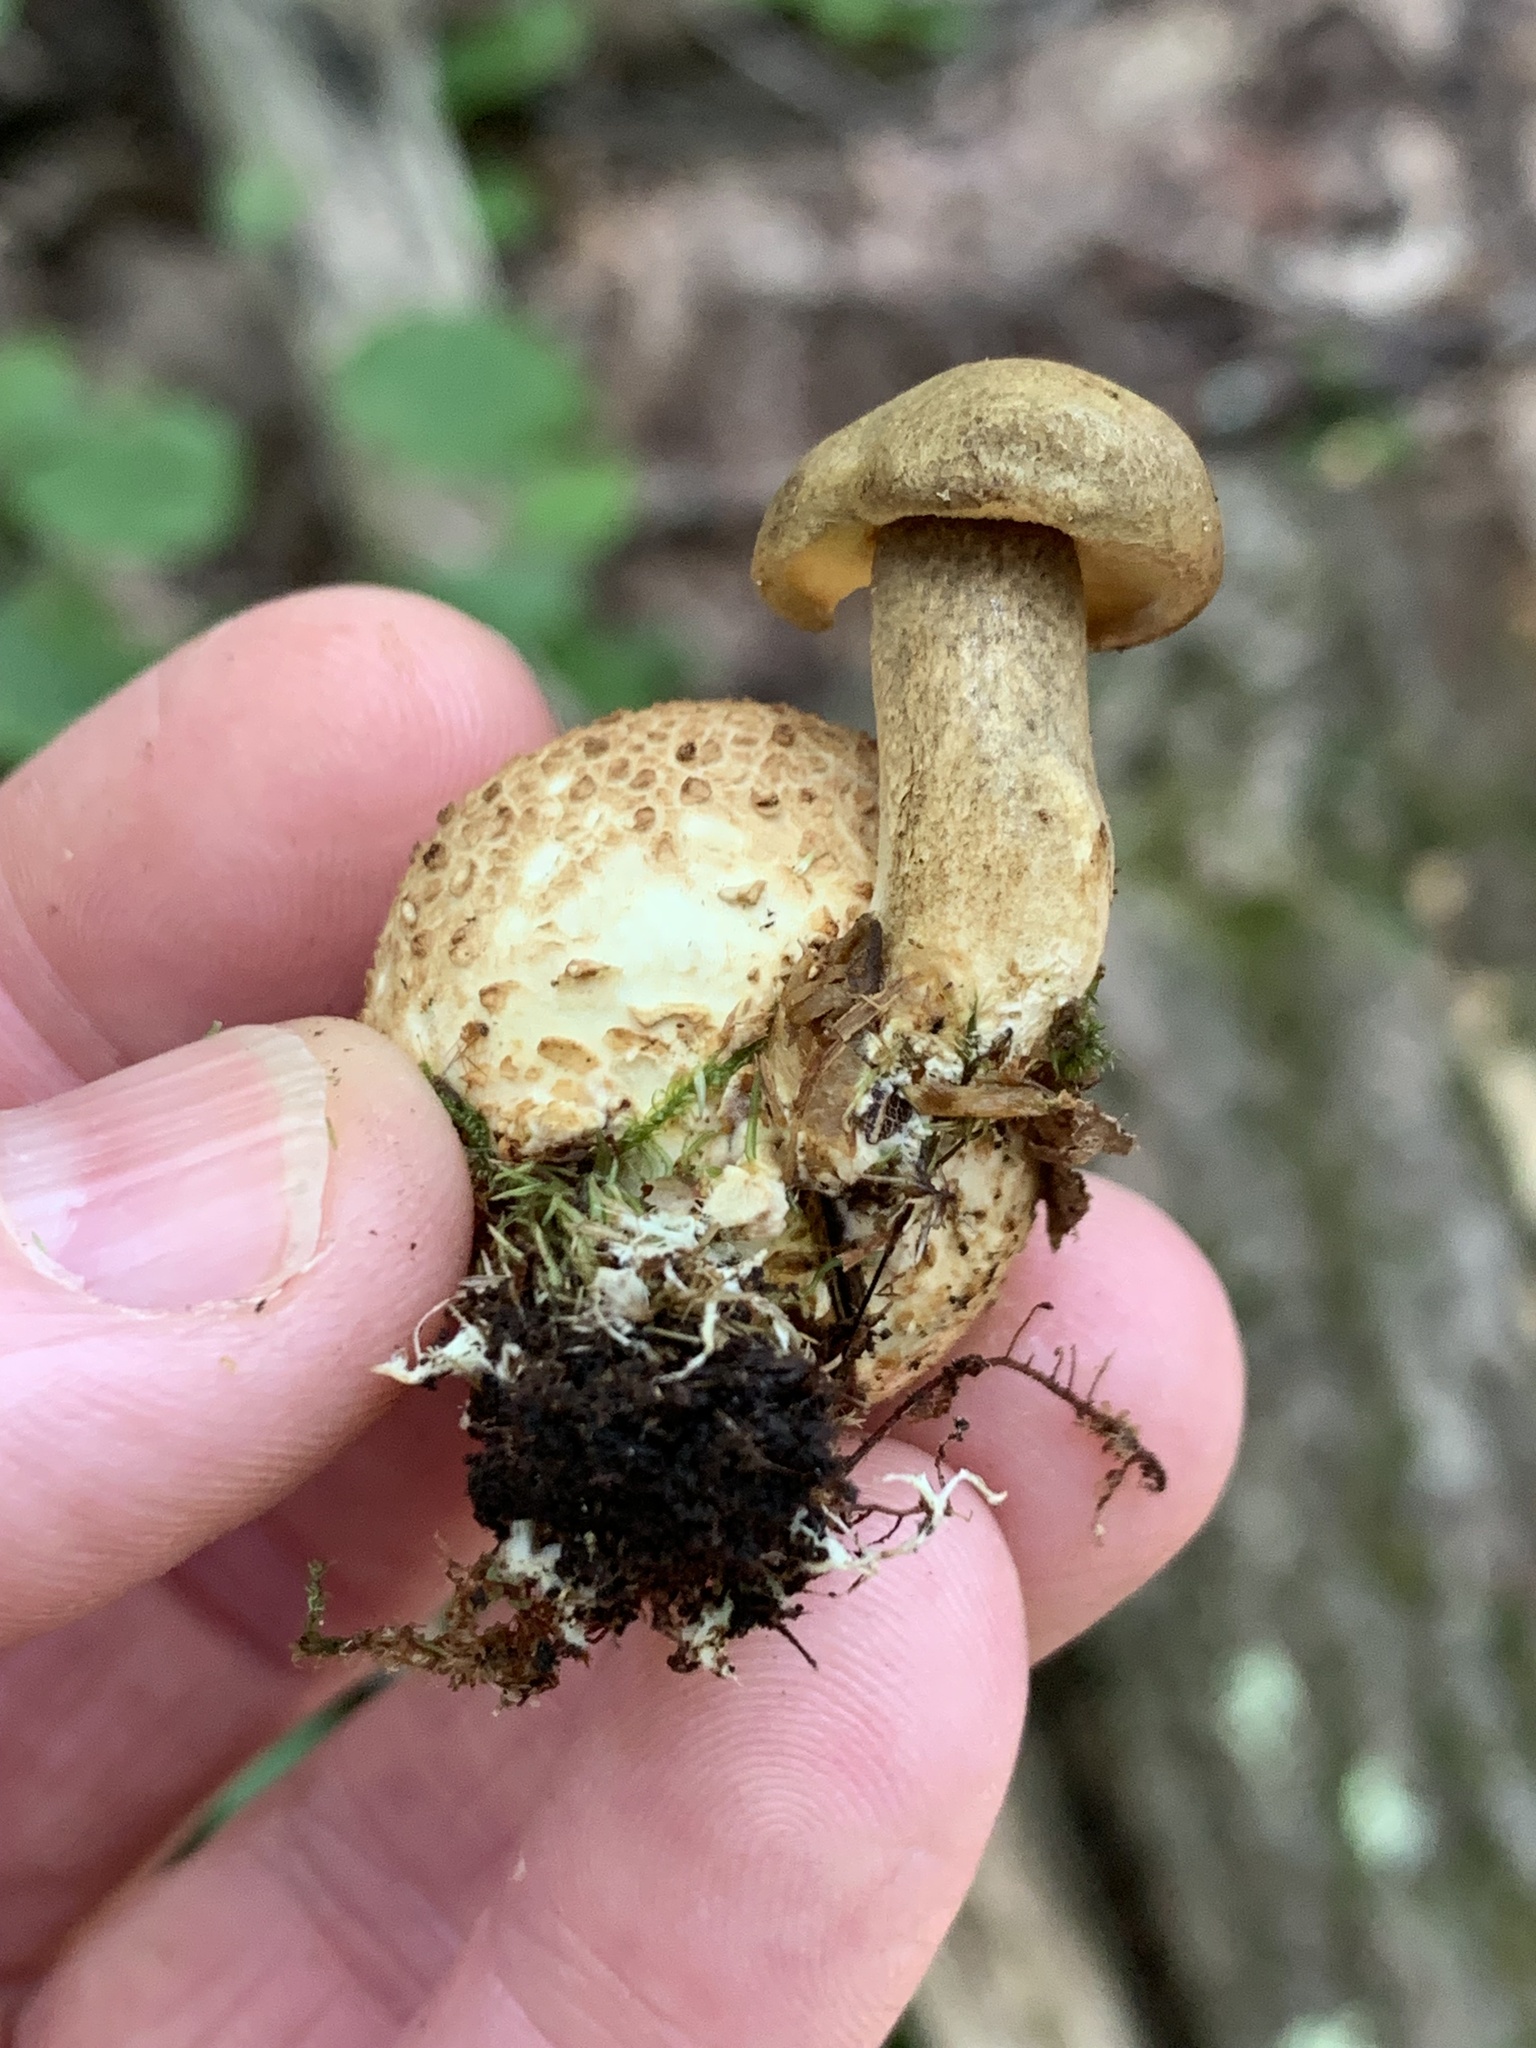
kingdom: Fungi
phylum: Basidiomycota
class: Agaricomycetes
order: Boletales
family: Boletaceae
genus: Pseudoboletus
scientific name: Pseudoboletus parasiticus
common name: Parasitic bolete
